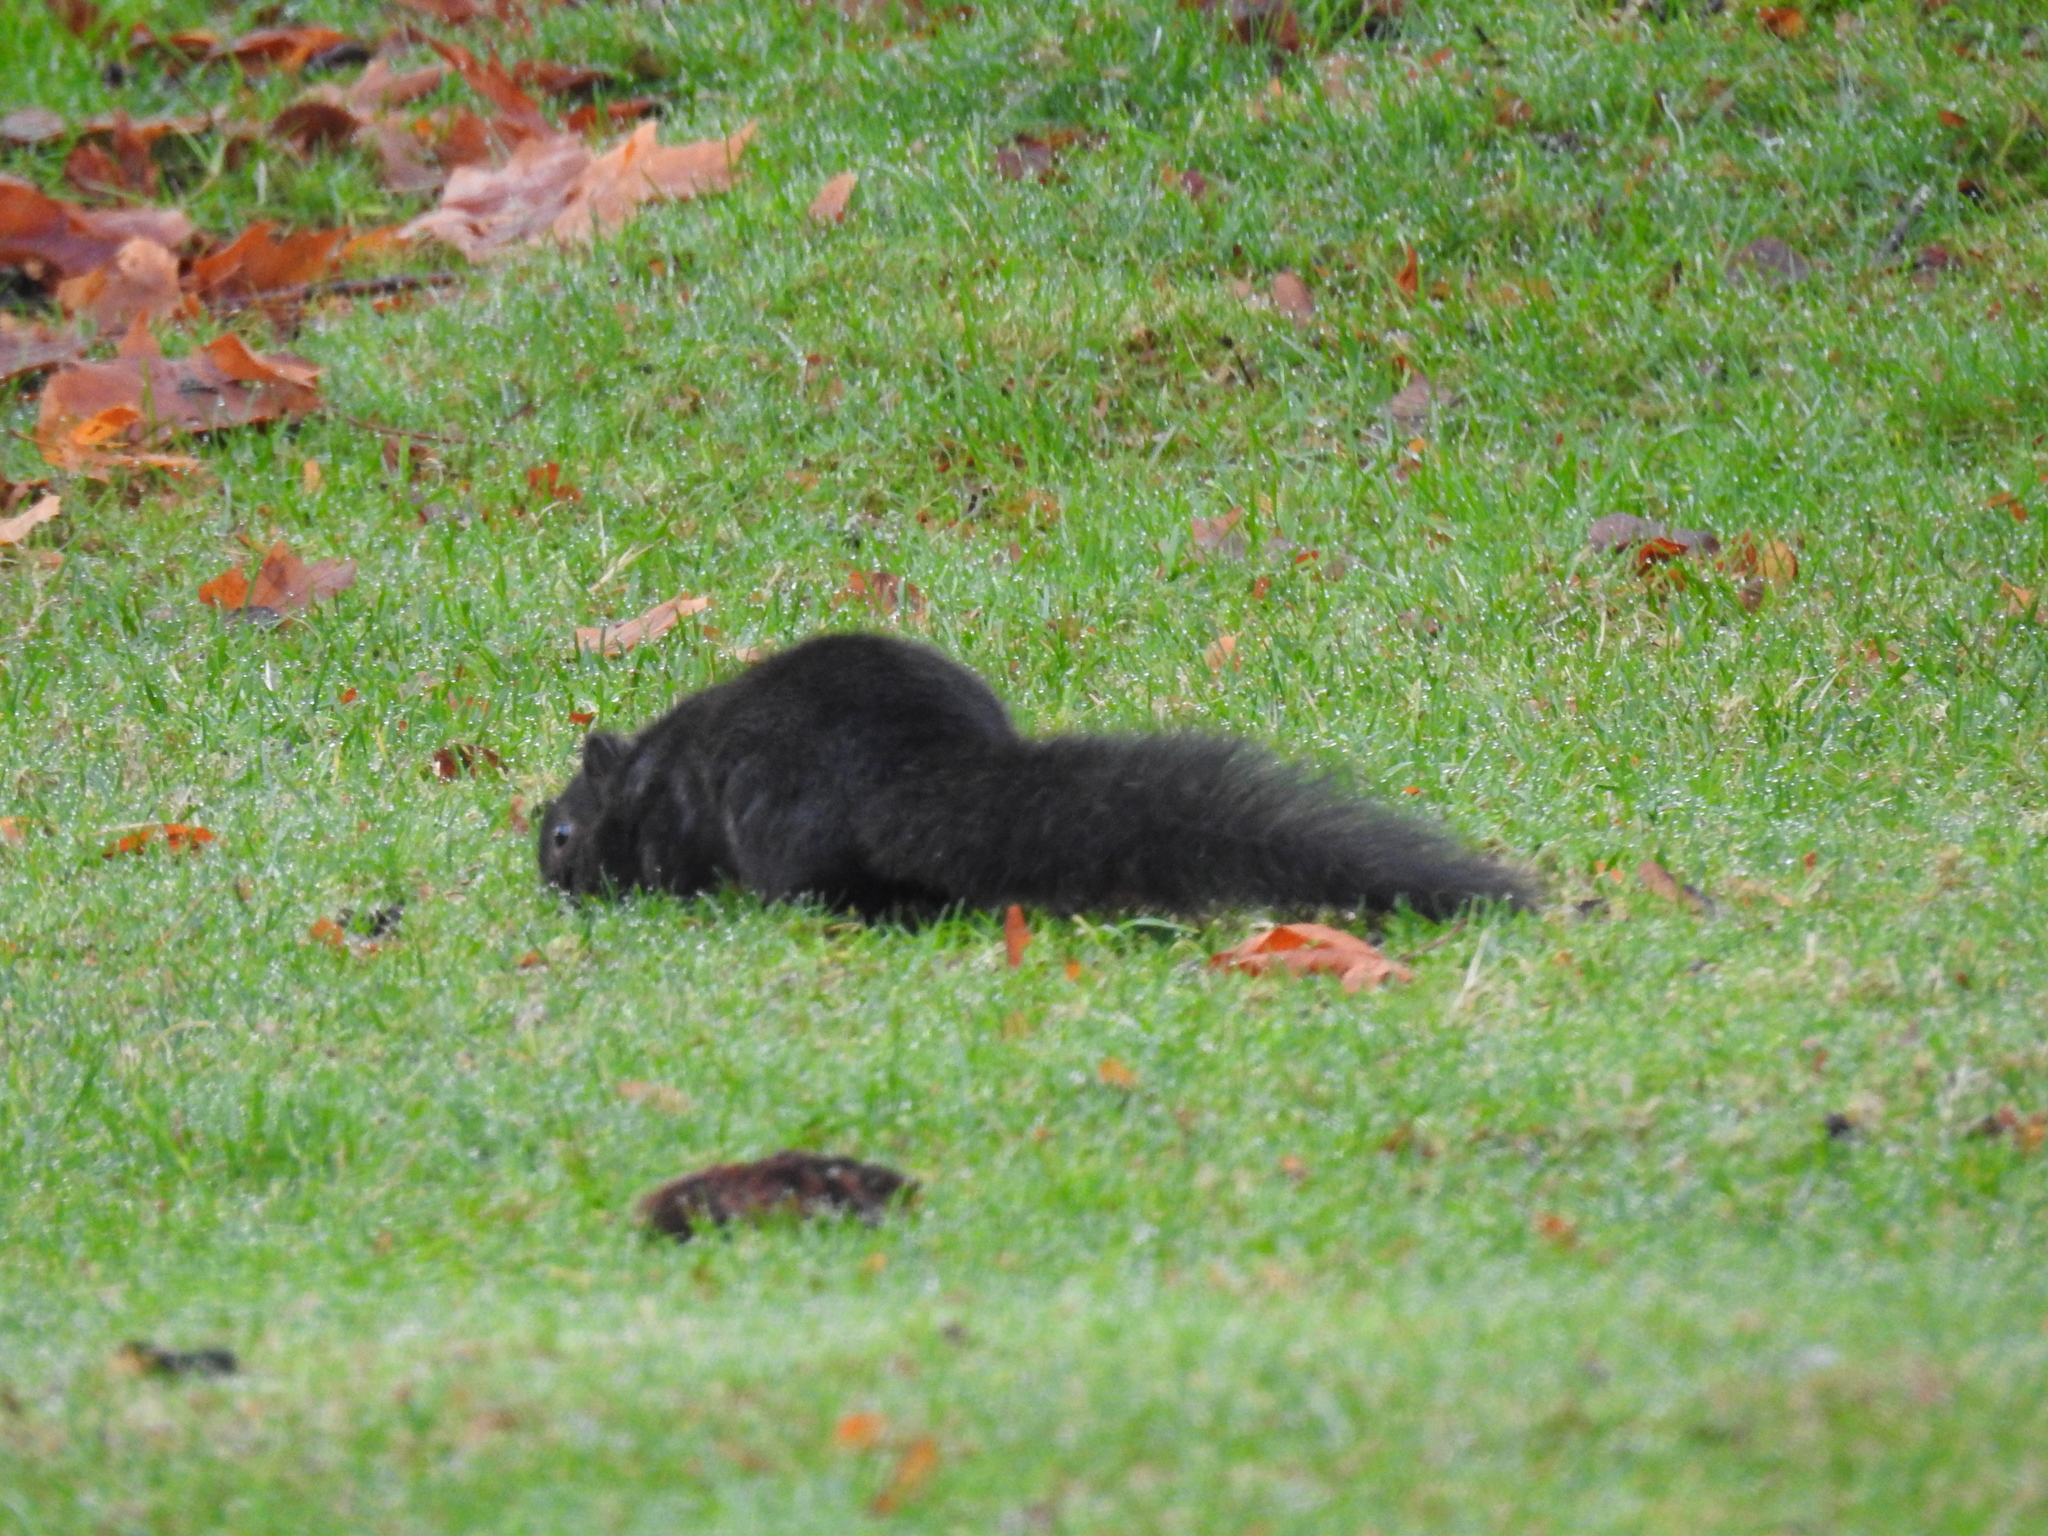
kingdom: Animalia
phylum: Chordata
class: Mammalia
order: Rodentia
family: Sciuridae
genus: Sciurus
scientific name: Sciurus carolinensis
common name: Eastern gray squirrel
